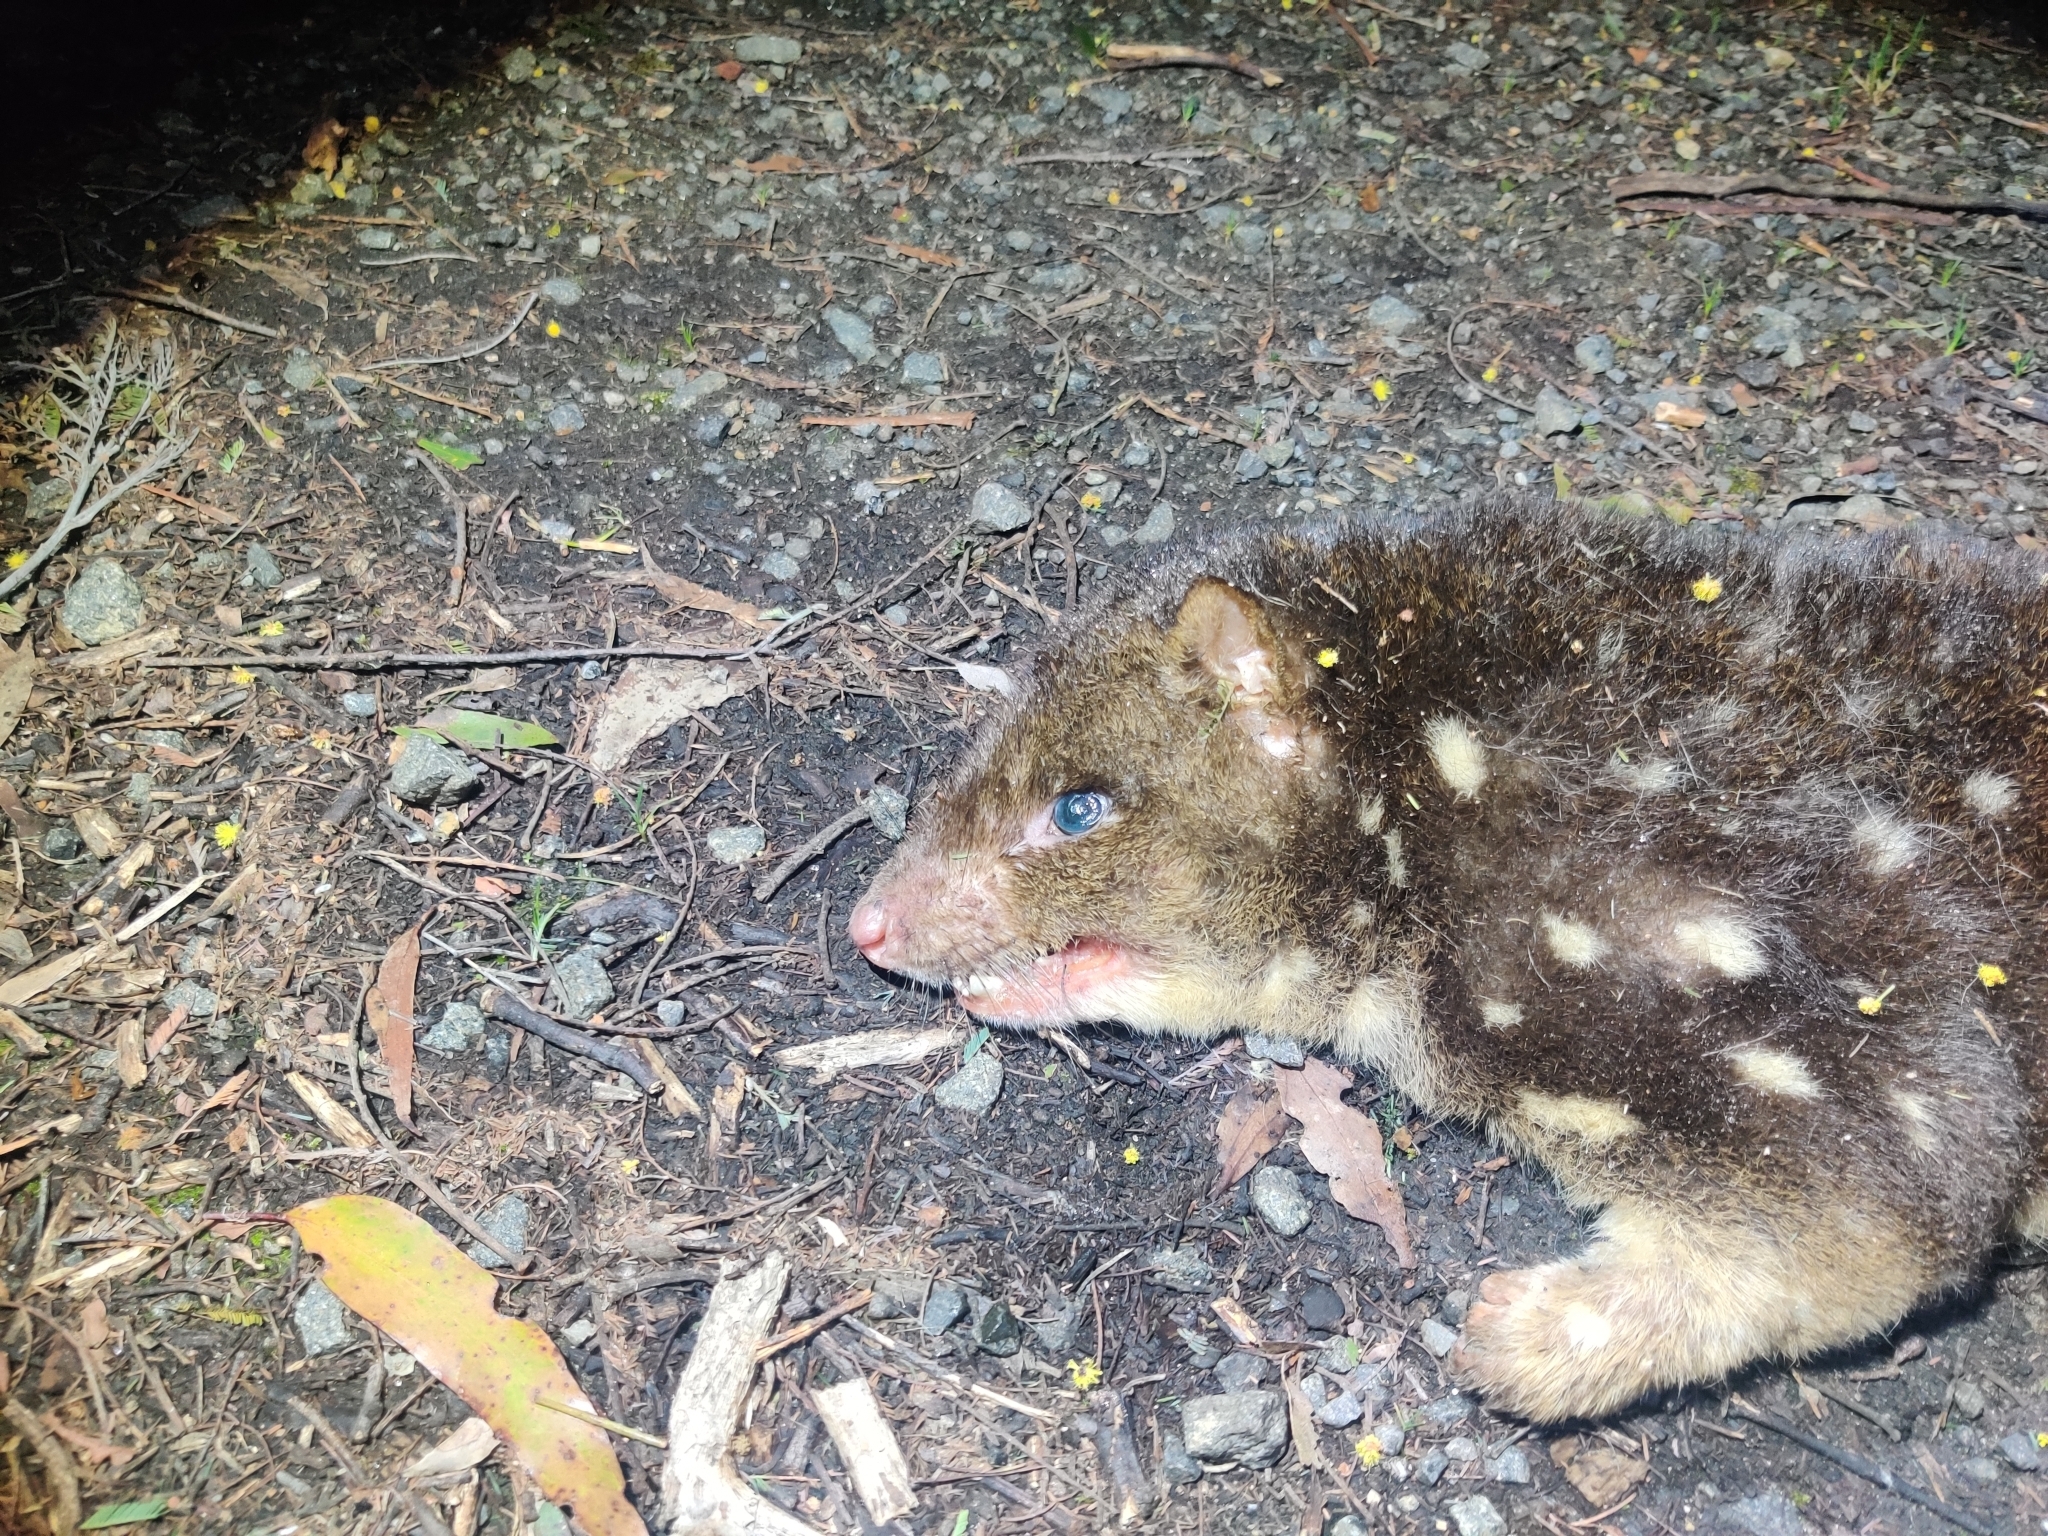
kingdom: Animalia
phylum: Chordata
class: Mammalia
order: Dasyuromorphia
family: Dasyuridae
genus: Dasyurus
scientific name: Dasyurus maculatus
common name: Tiger quoll
